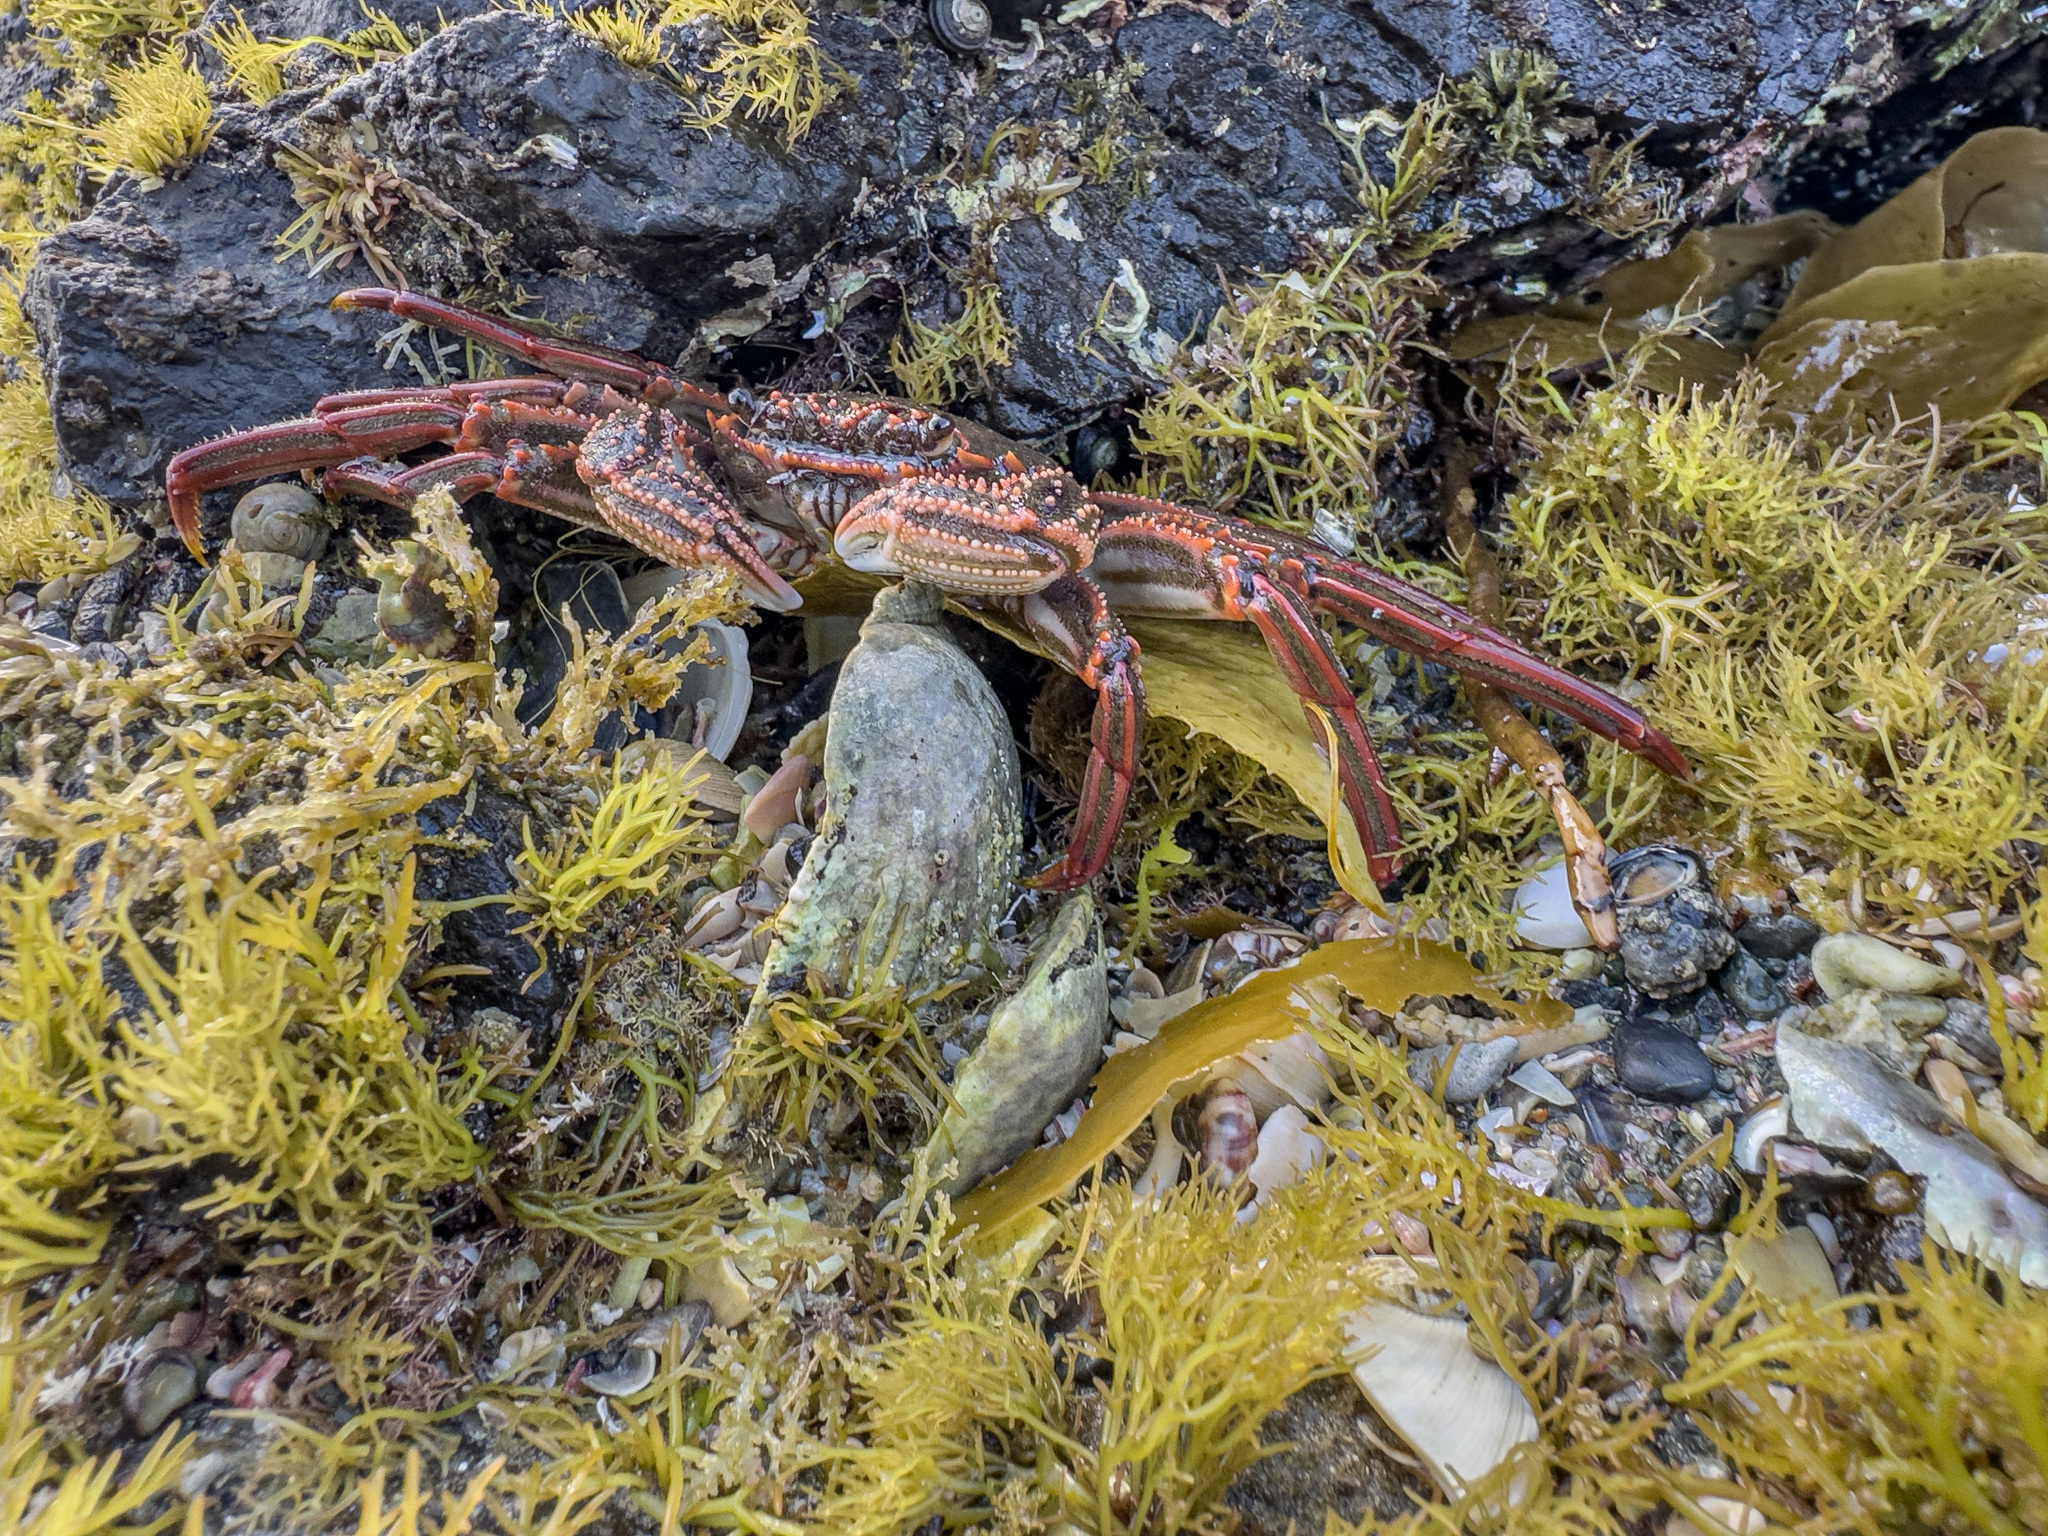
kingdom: Animalia
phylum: Arthropoda
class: Malacostraca
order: Decapoda
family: Plagusiidae
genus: Guinusia
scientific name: Guinusia chabrus
